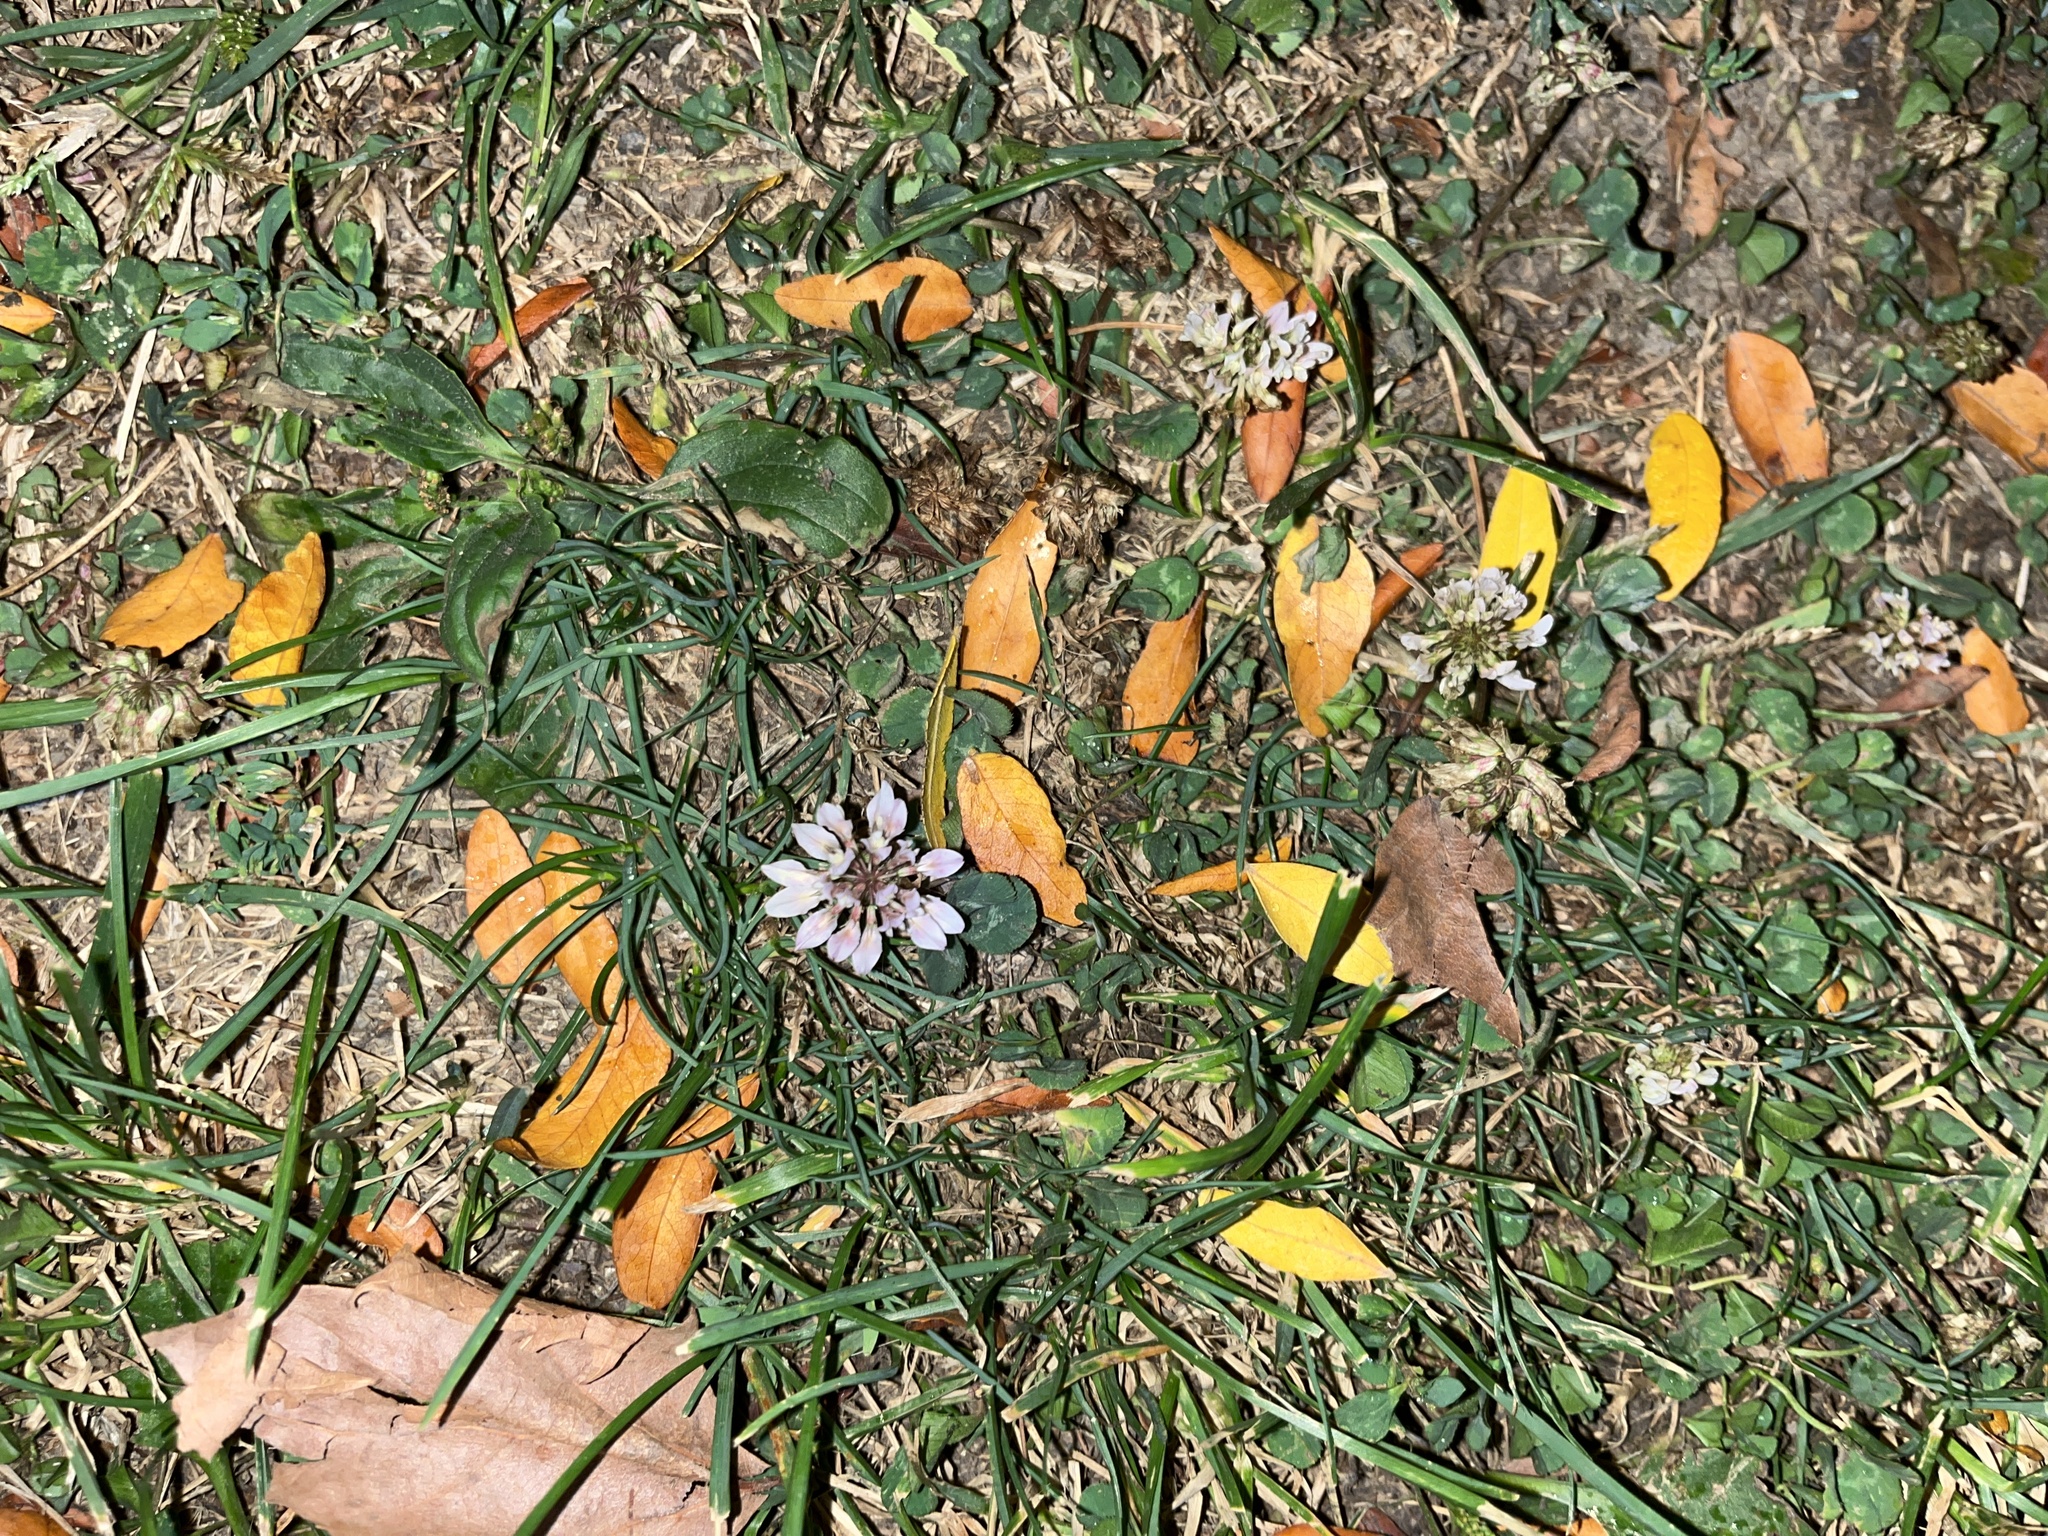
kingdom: Plantae
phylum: Tracheophyta
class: Magnoliopsida
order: Fabales
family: Fabaceae
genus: Trifolium
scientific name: Trifolium repens
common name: White clover
